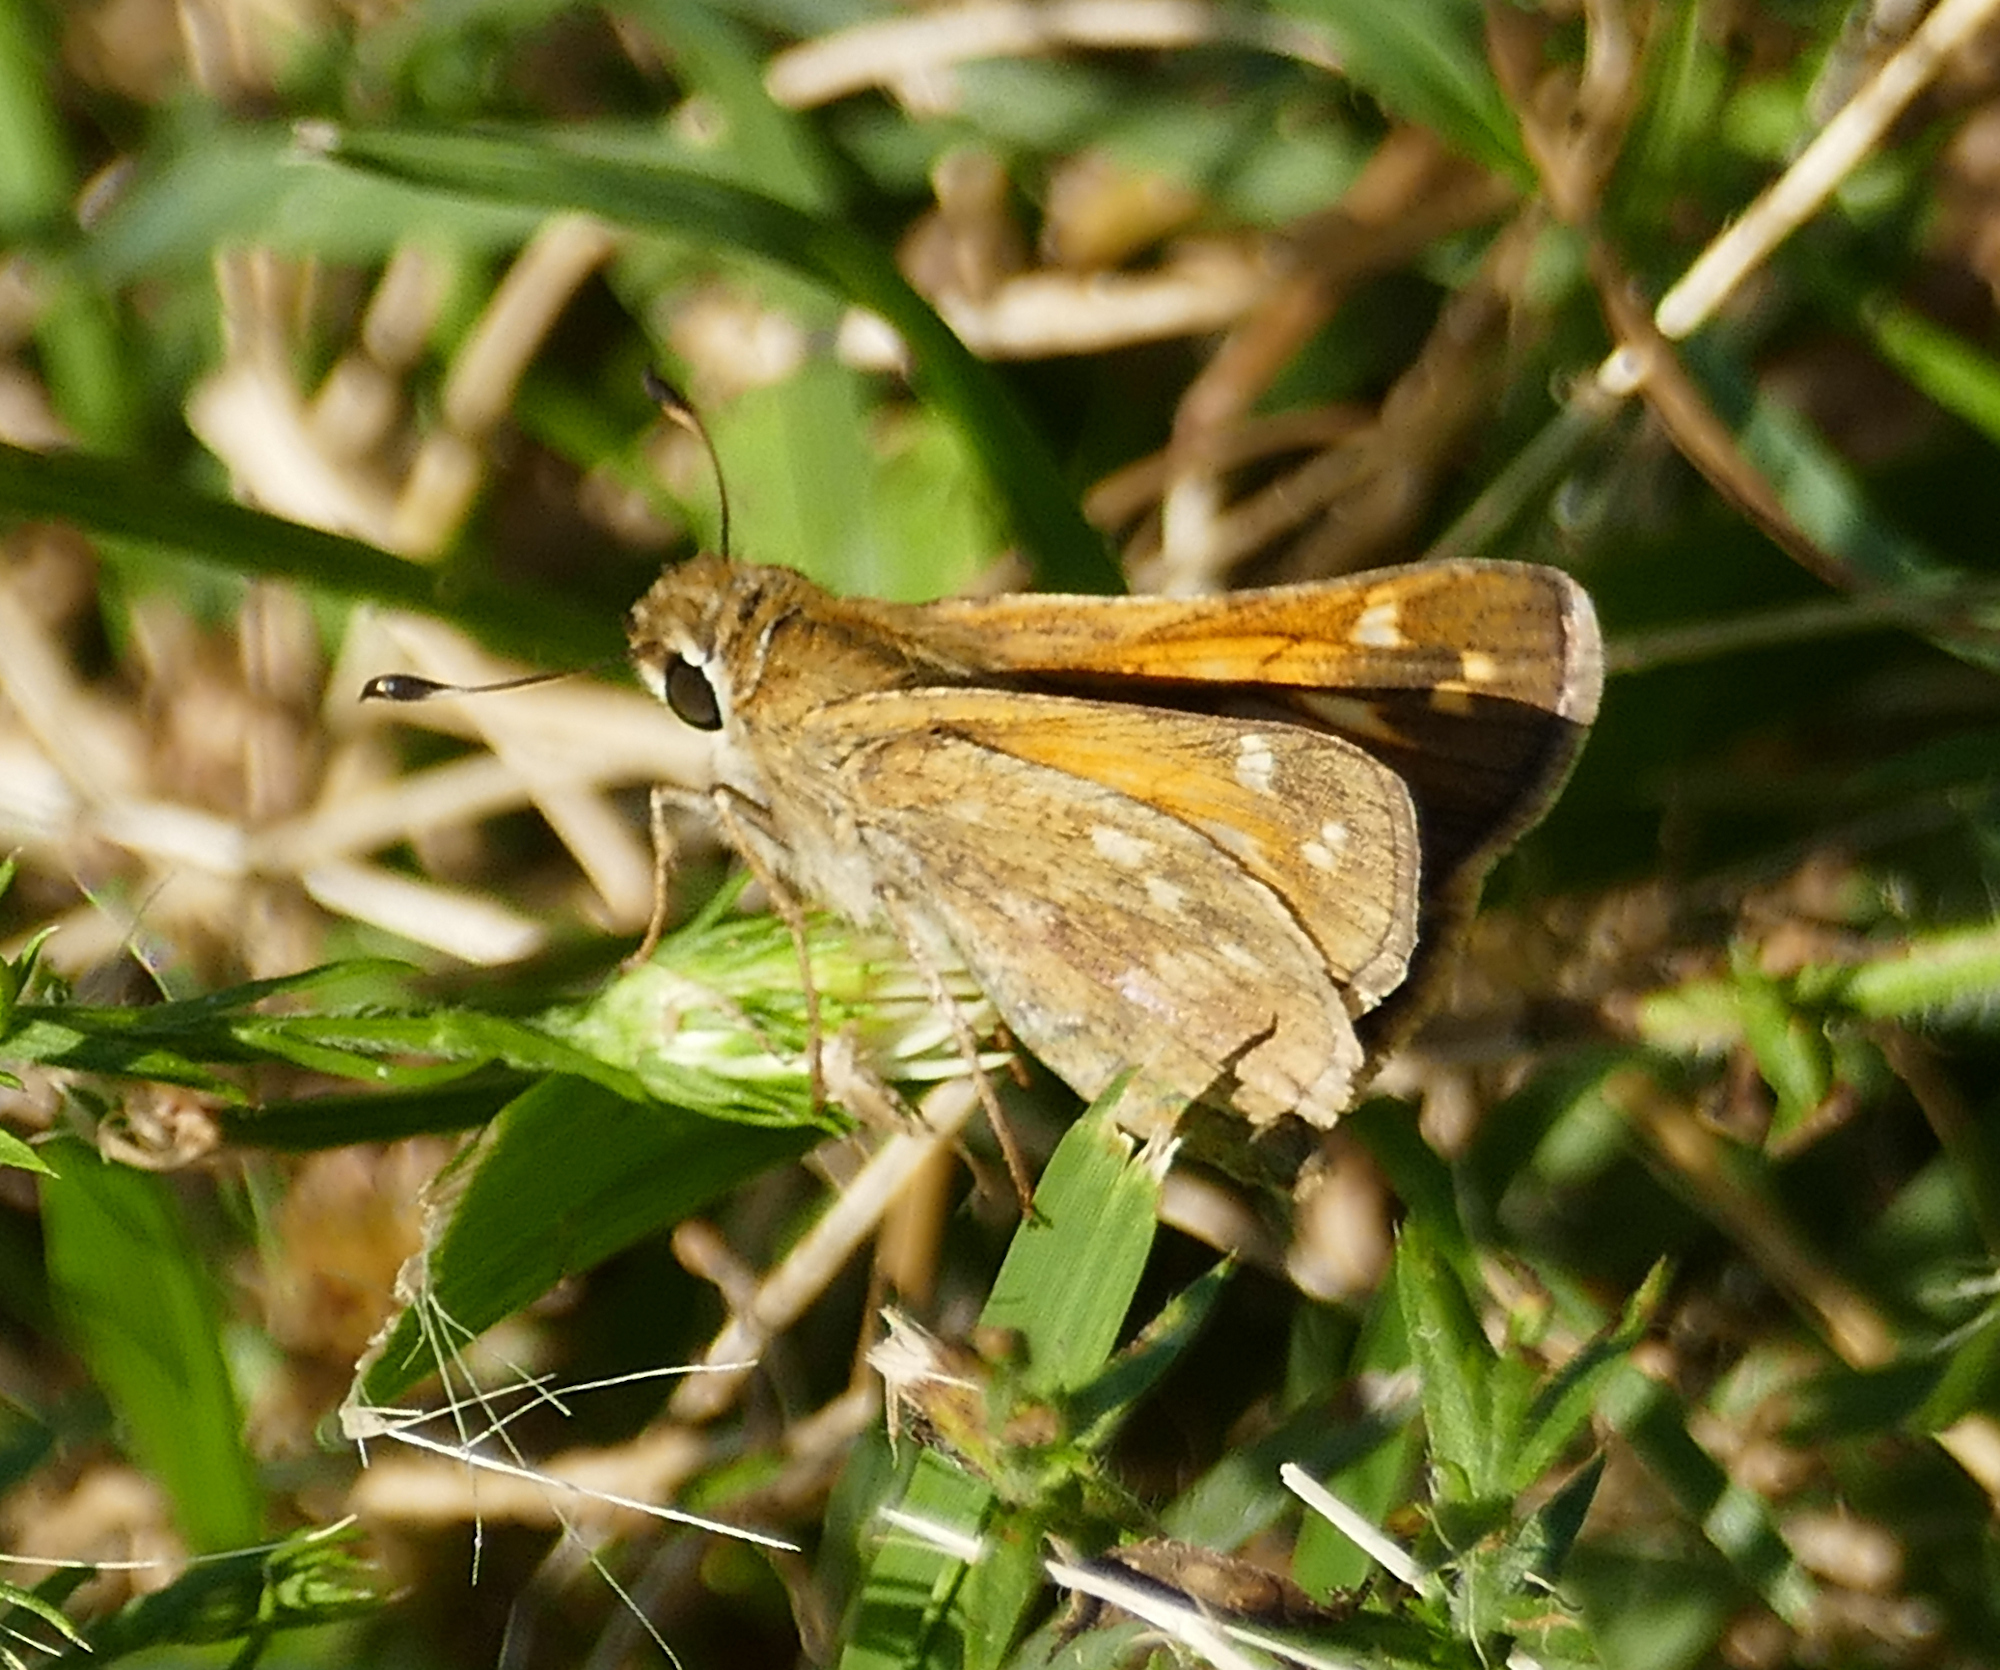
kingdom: Animalia
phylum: Arthropoda
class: Insecta
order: Lepidoptera
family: Hesperiidae
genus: Atalopedes
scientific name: Atalopedes
